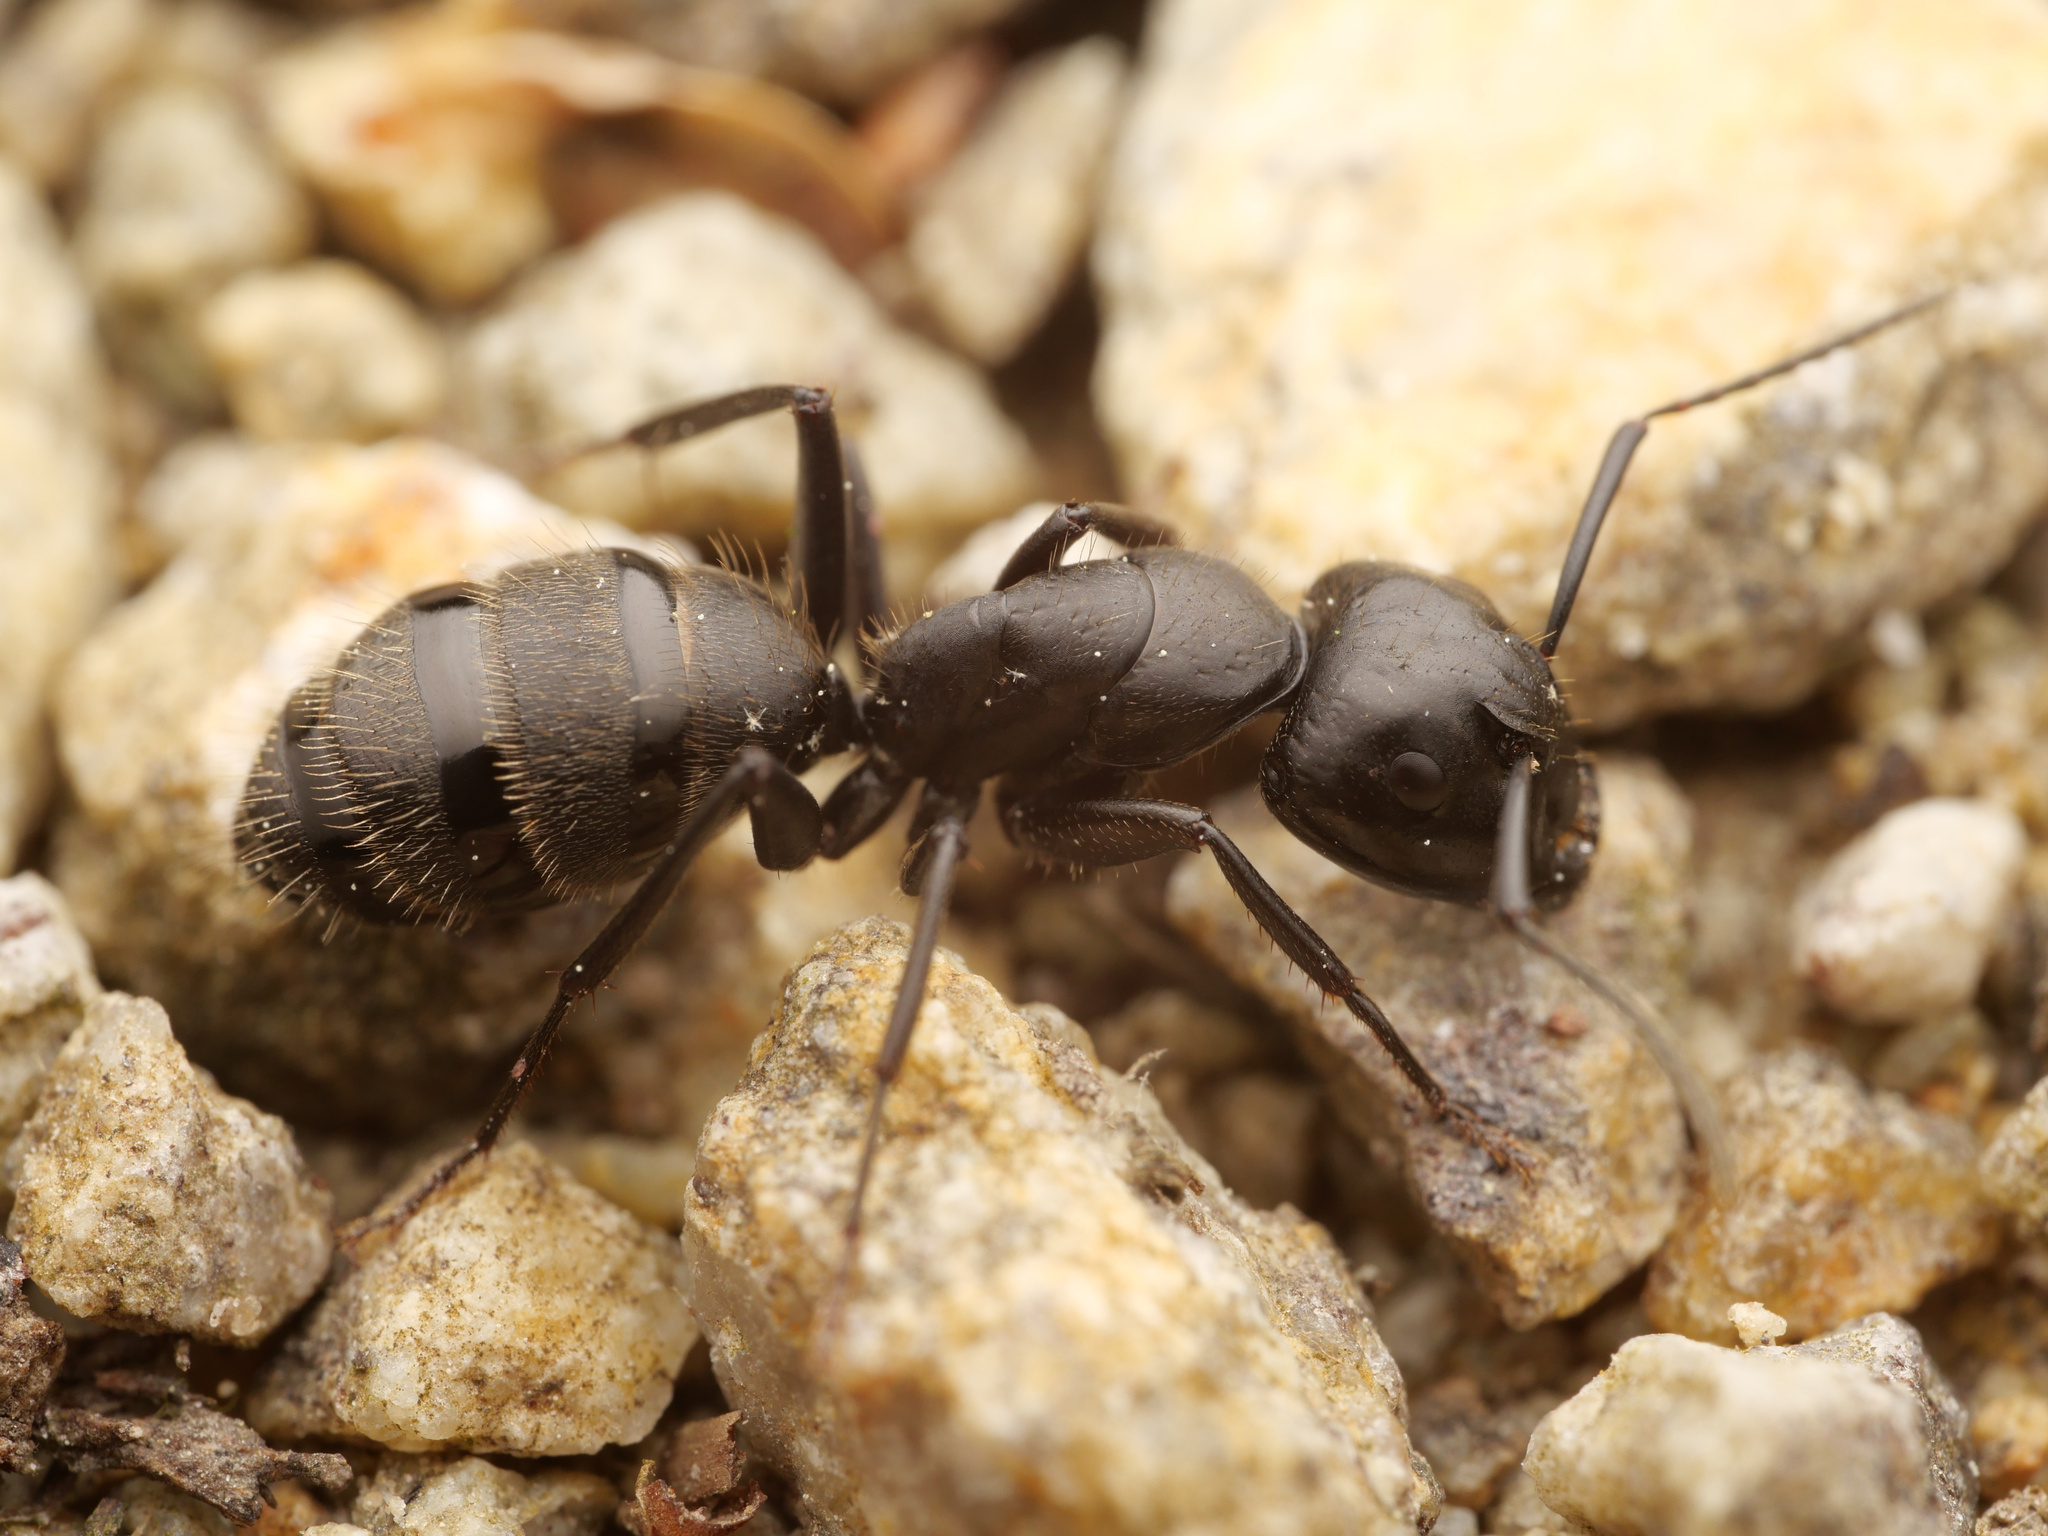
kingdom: Animalia
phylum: Arthropoda
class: Insecta
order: Hymenoptera
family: Formicidae
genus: Camponotus
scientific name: Camponotus vagus
